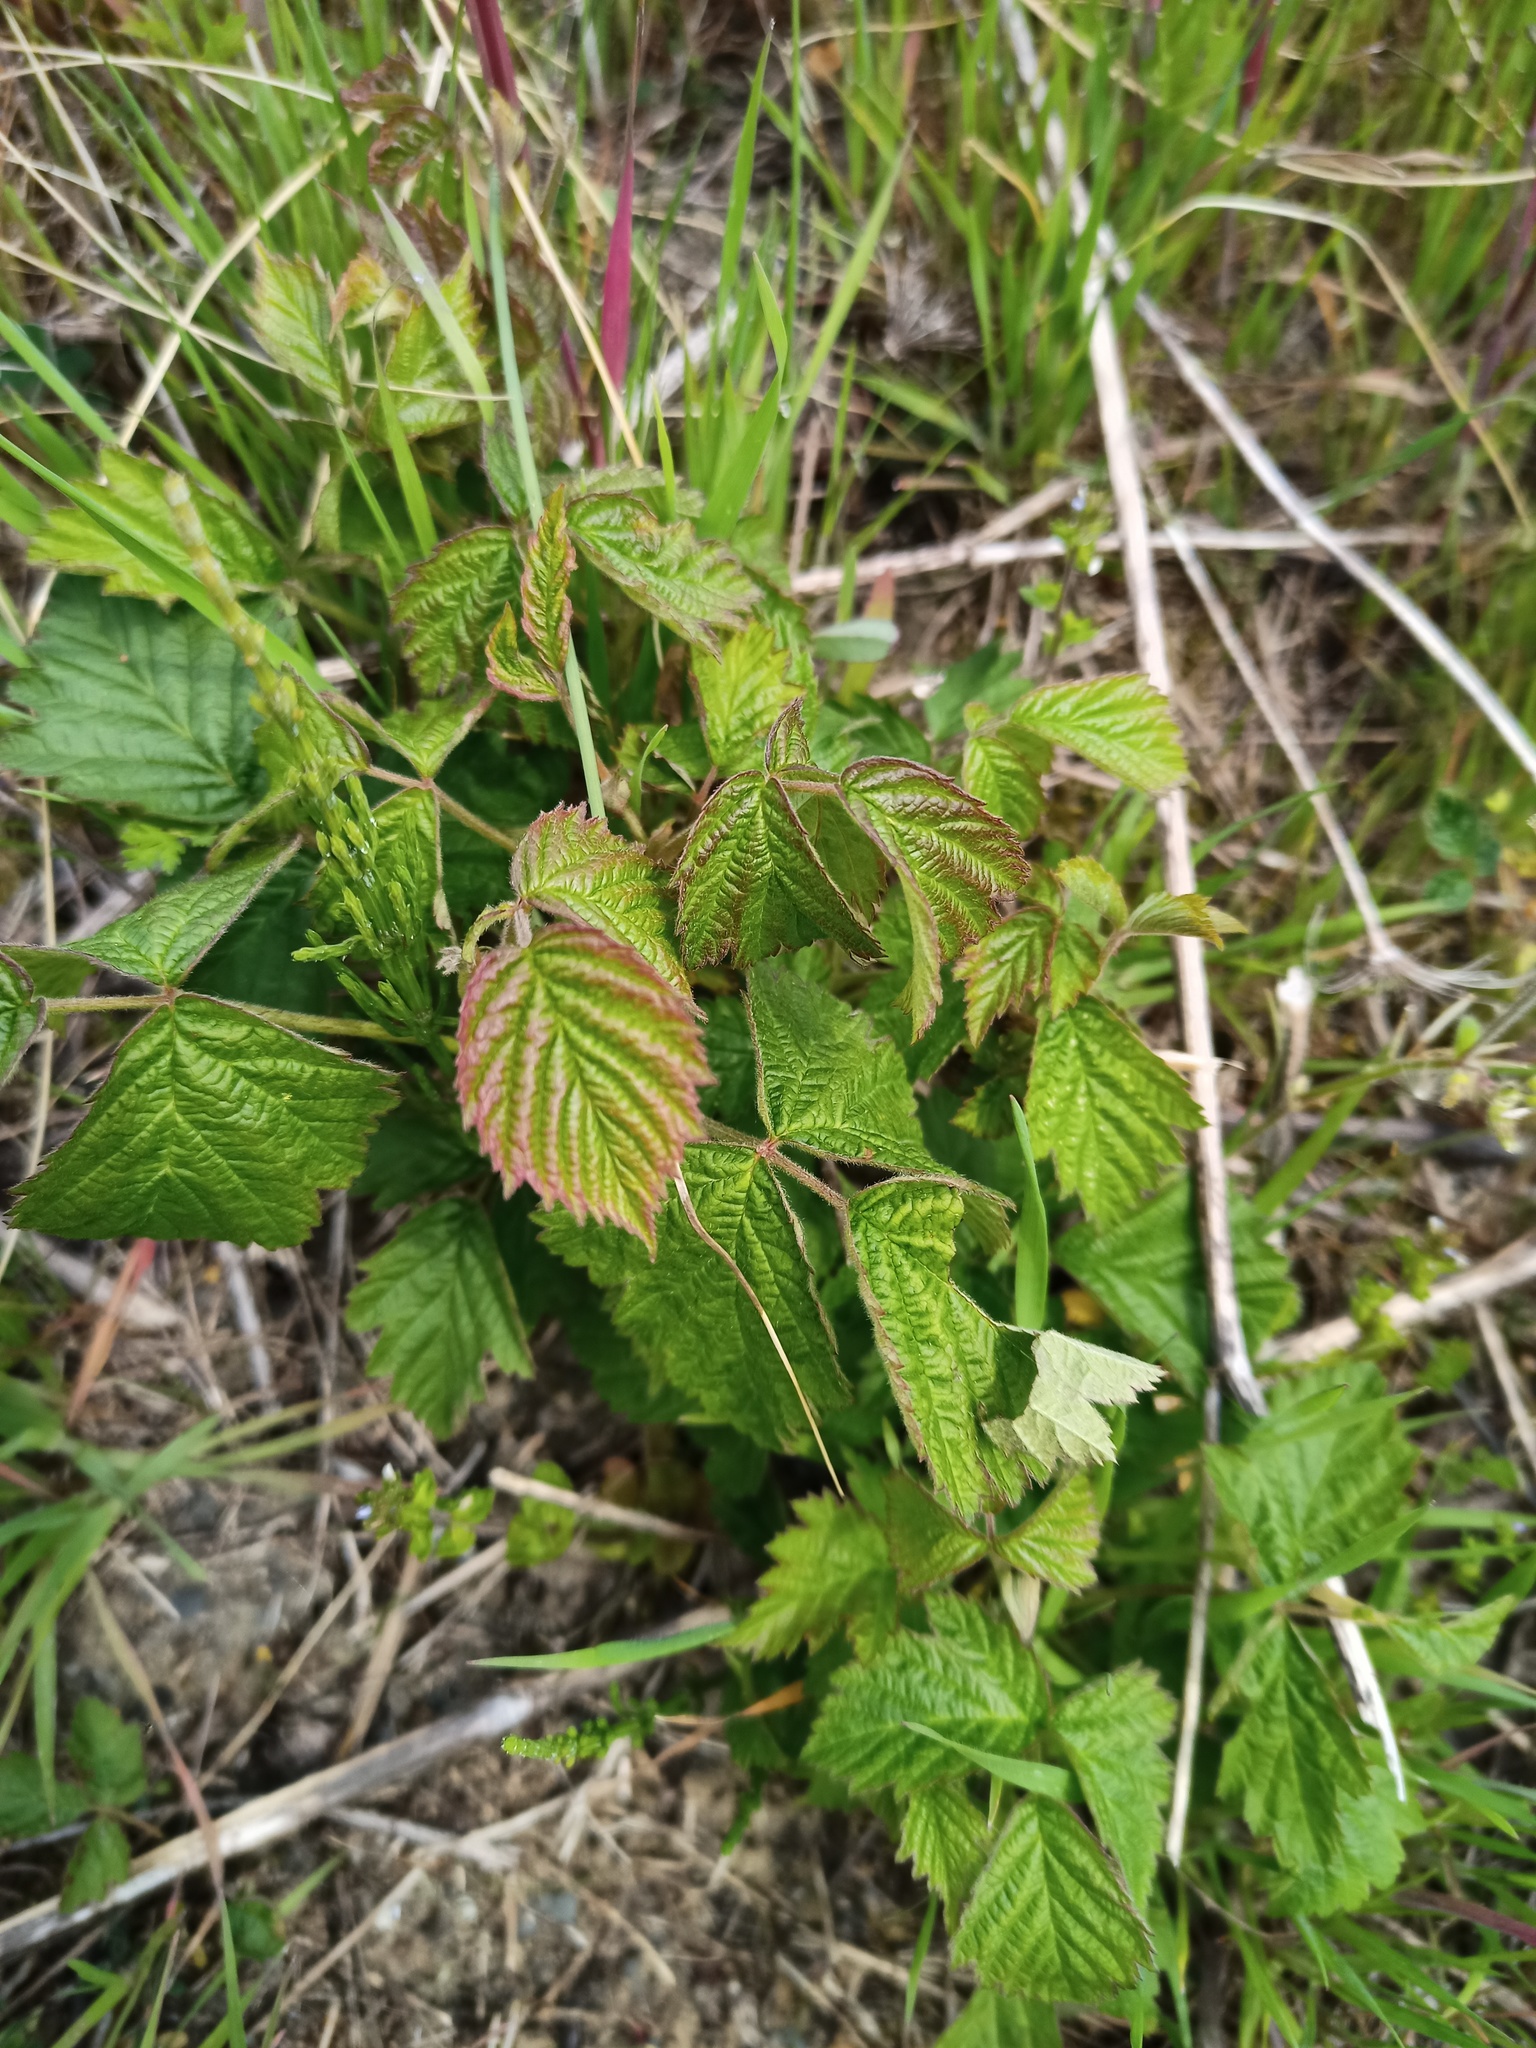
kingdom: Plantae
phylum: Tracheophyta
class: Magnoliopsida
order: Rosales
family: Rosaceae
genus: Rubus
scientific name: Rubus caesius
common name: Dewberry
